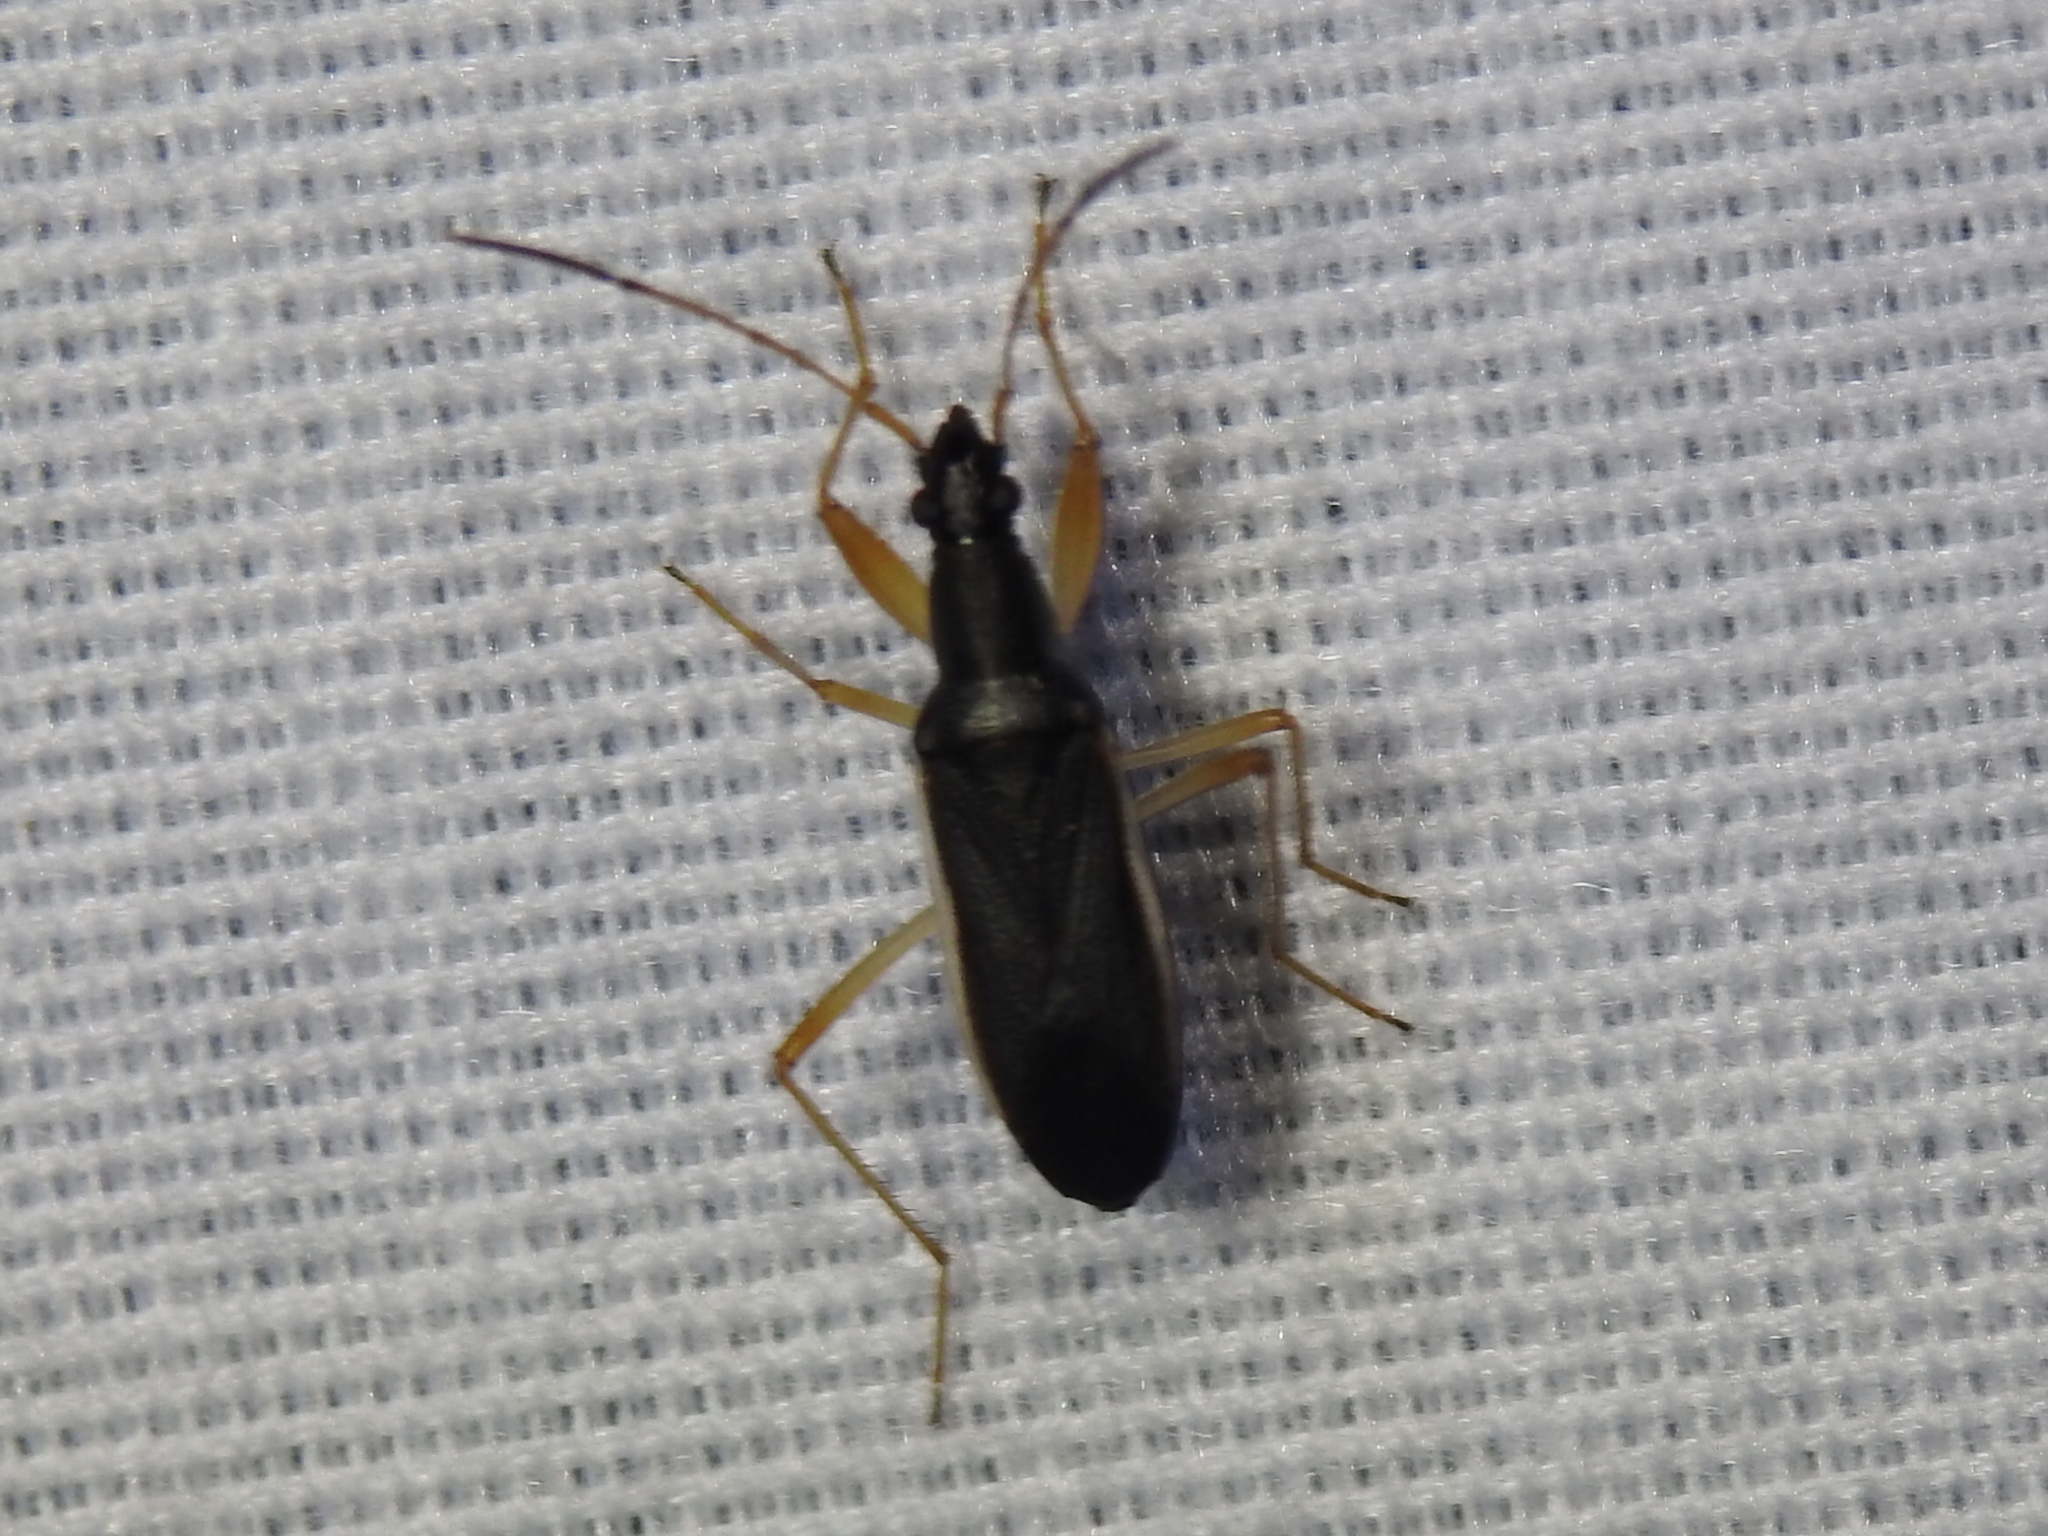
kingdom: Animalia
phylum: Arthropoda
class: Insecta
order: Hemiptera
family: Rhyparochromidae
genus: Cnemodus
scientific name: Cnemodus mavortius
